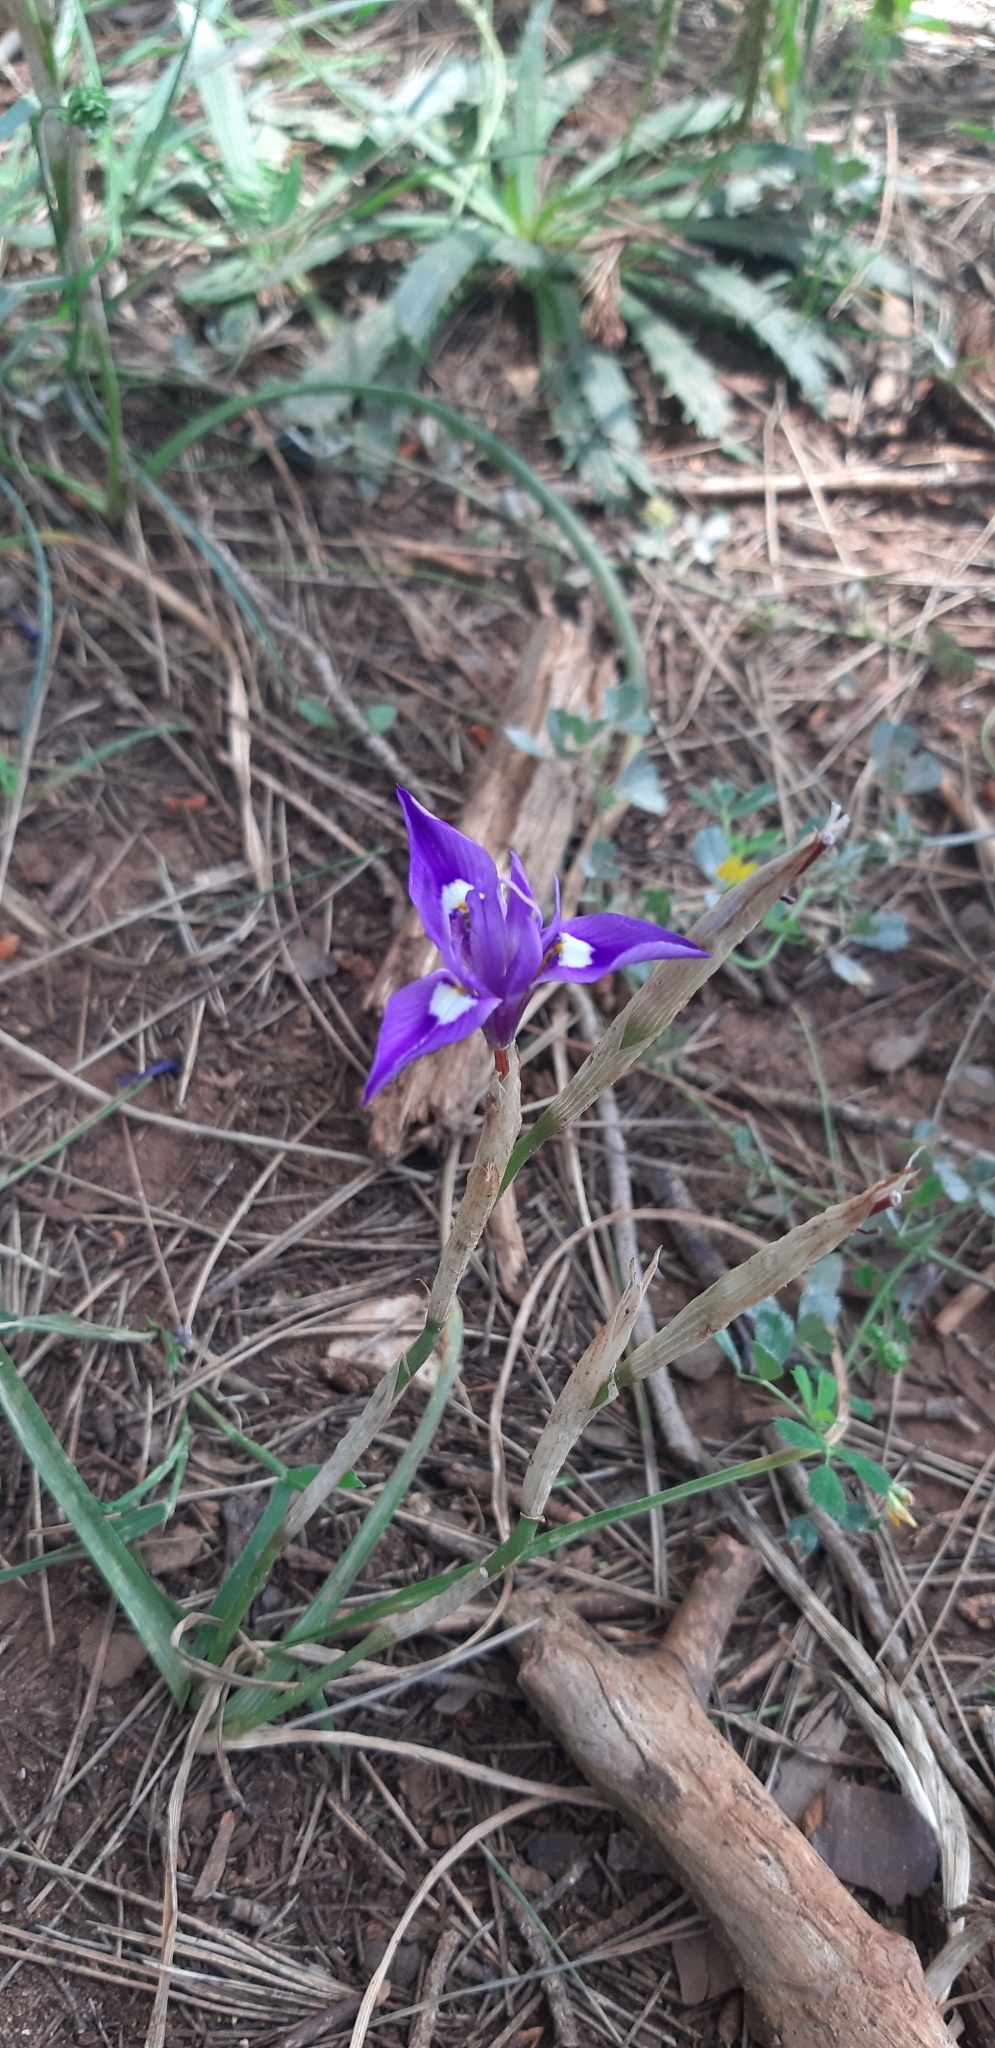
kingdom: Plantae
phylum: Tracheophyta
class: Liliopsida
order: Asparagales
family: Iridaceae
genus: Moraea
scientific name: Moraea sisyrinchium
